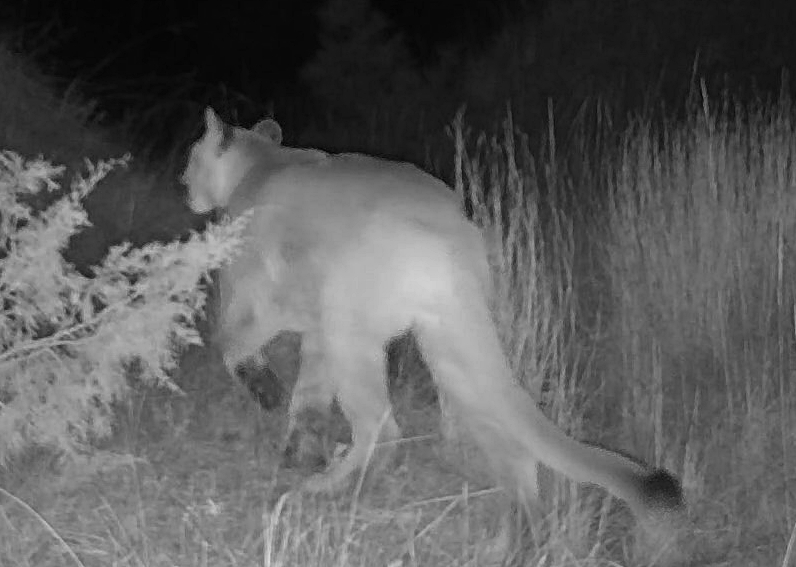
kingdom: Animalia
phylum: Chordata
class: Mammalia
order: Carnivora
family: Felidae
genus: Puma
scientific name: Puma concolor
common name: Puma
